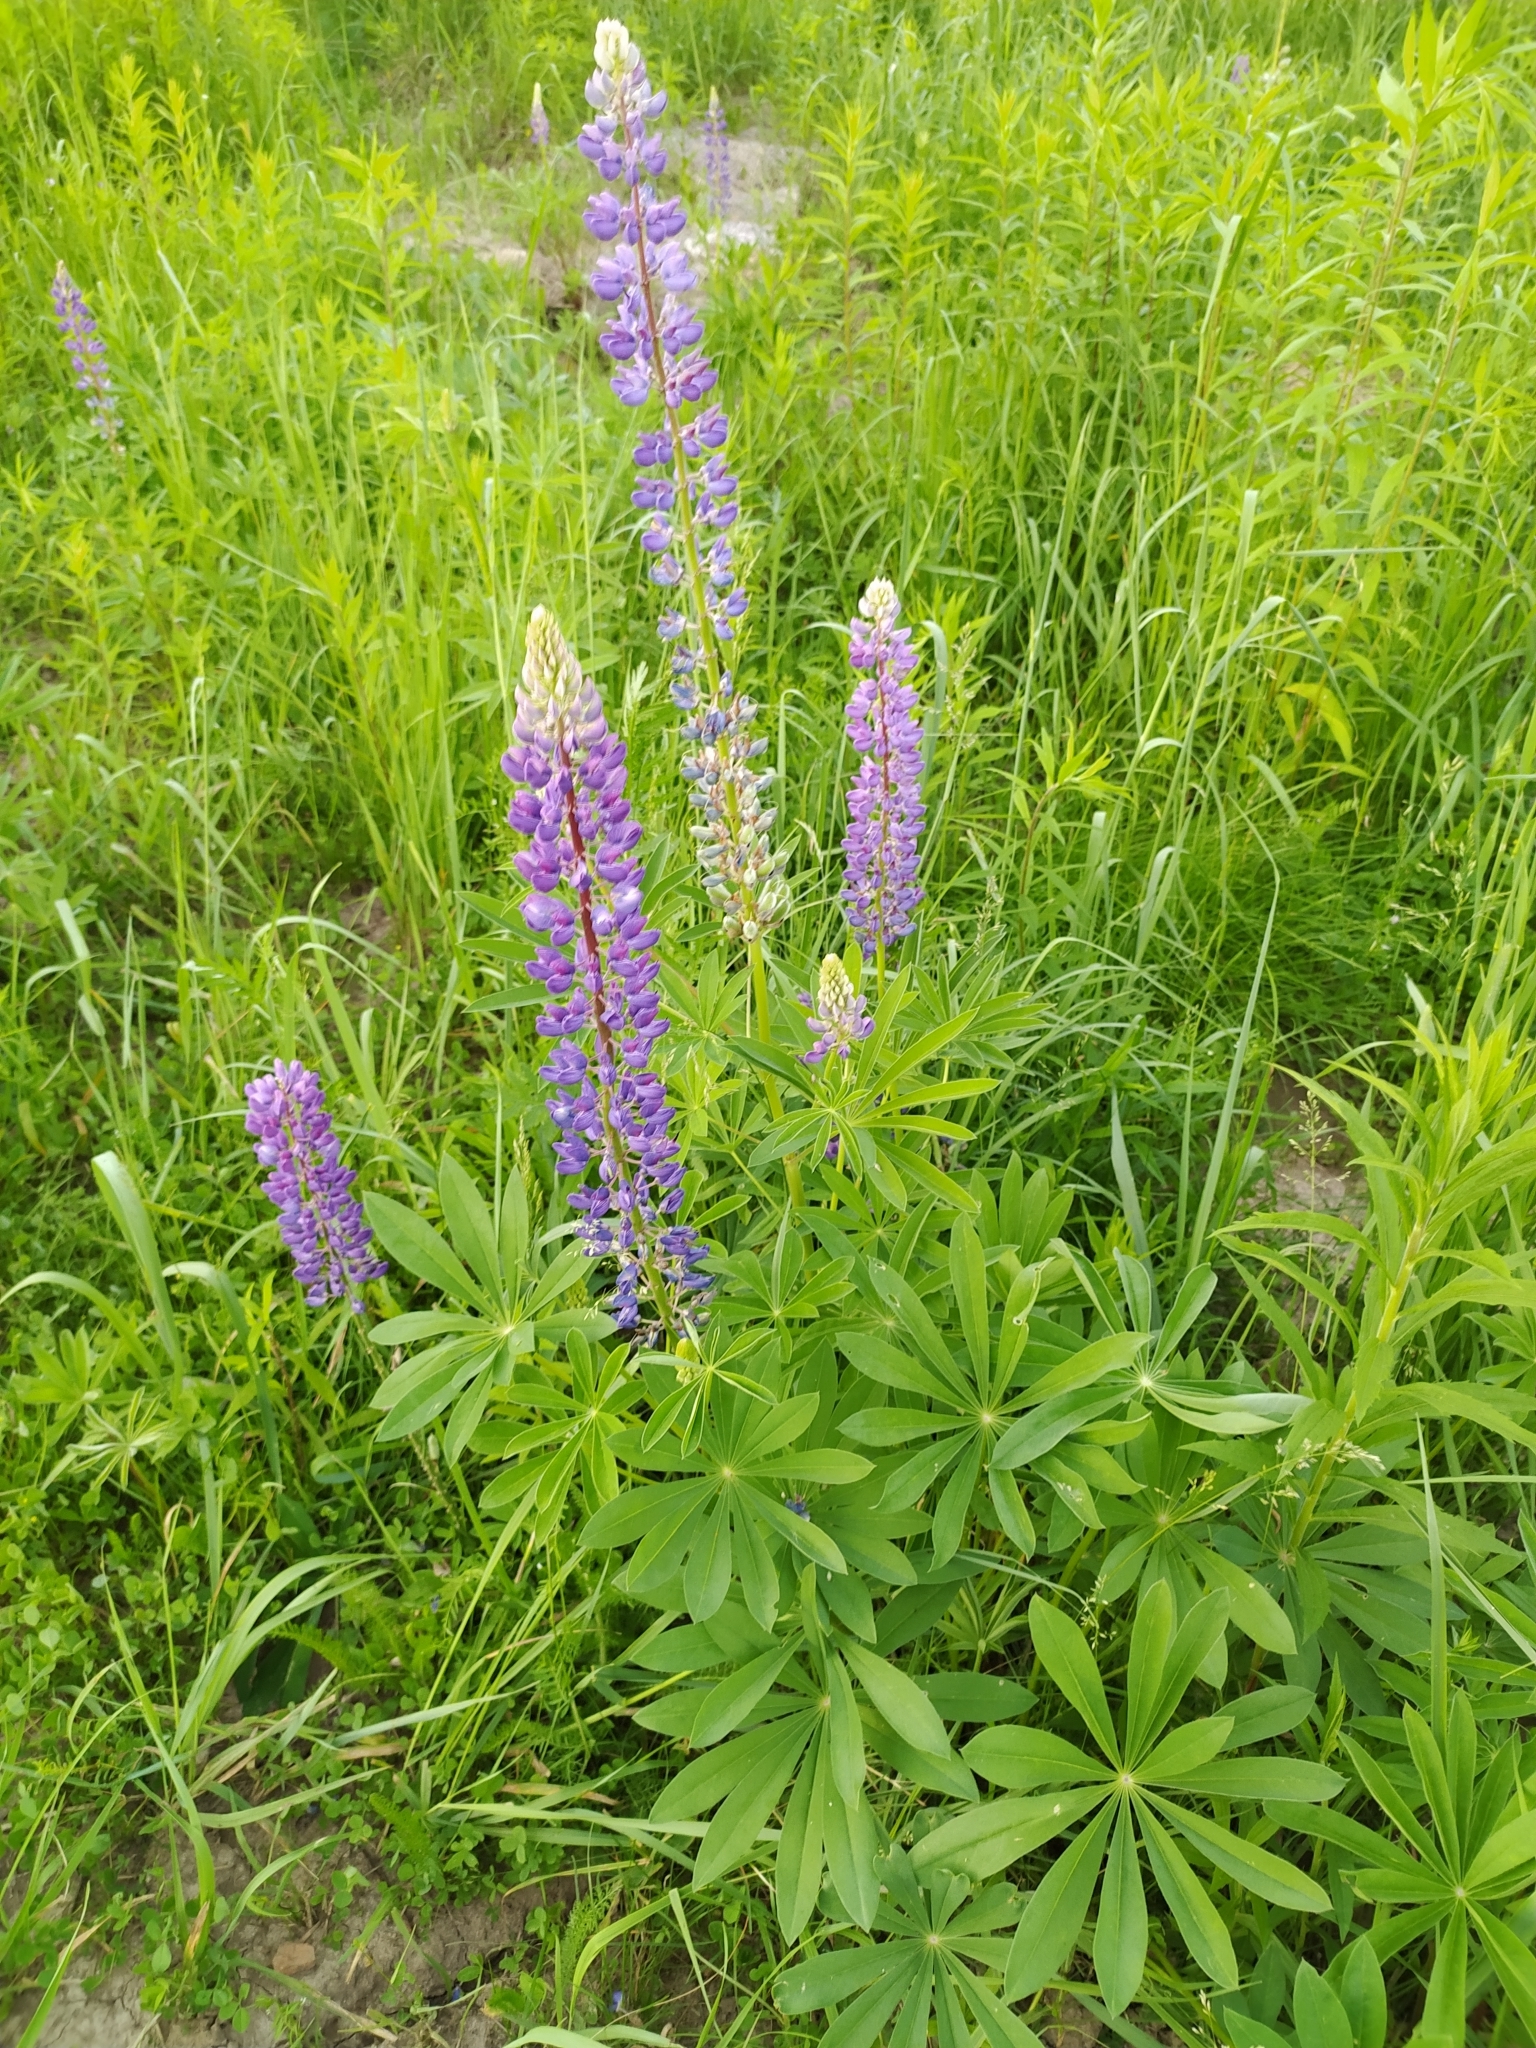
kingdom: Plantae
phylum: Tracheophyta
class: Magnoliopsida
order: Fabales
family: Fabaceae
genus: Lupinus
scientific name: Lupinus polyphyllus
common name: Garden lupin
